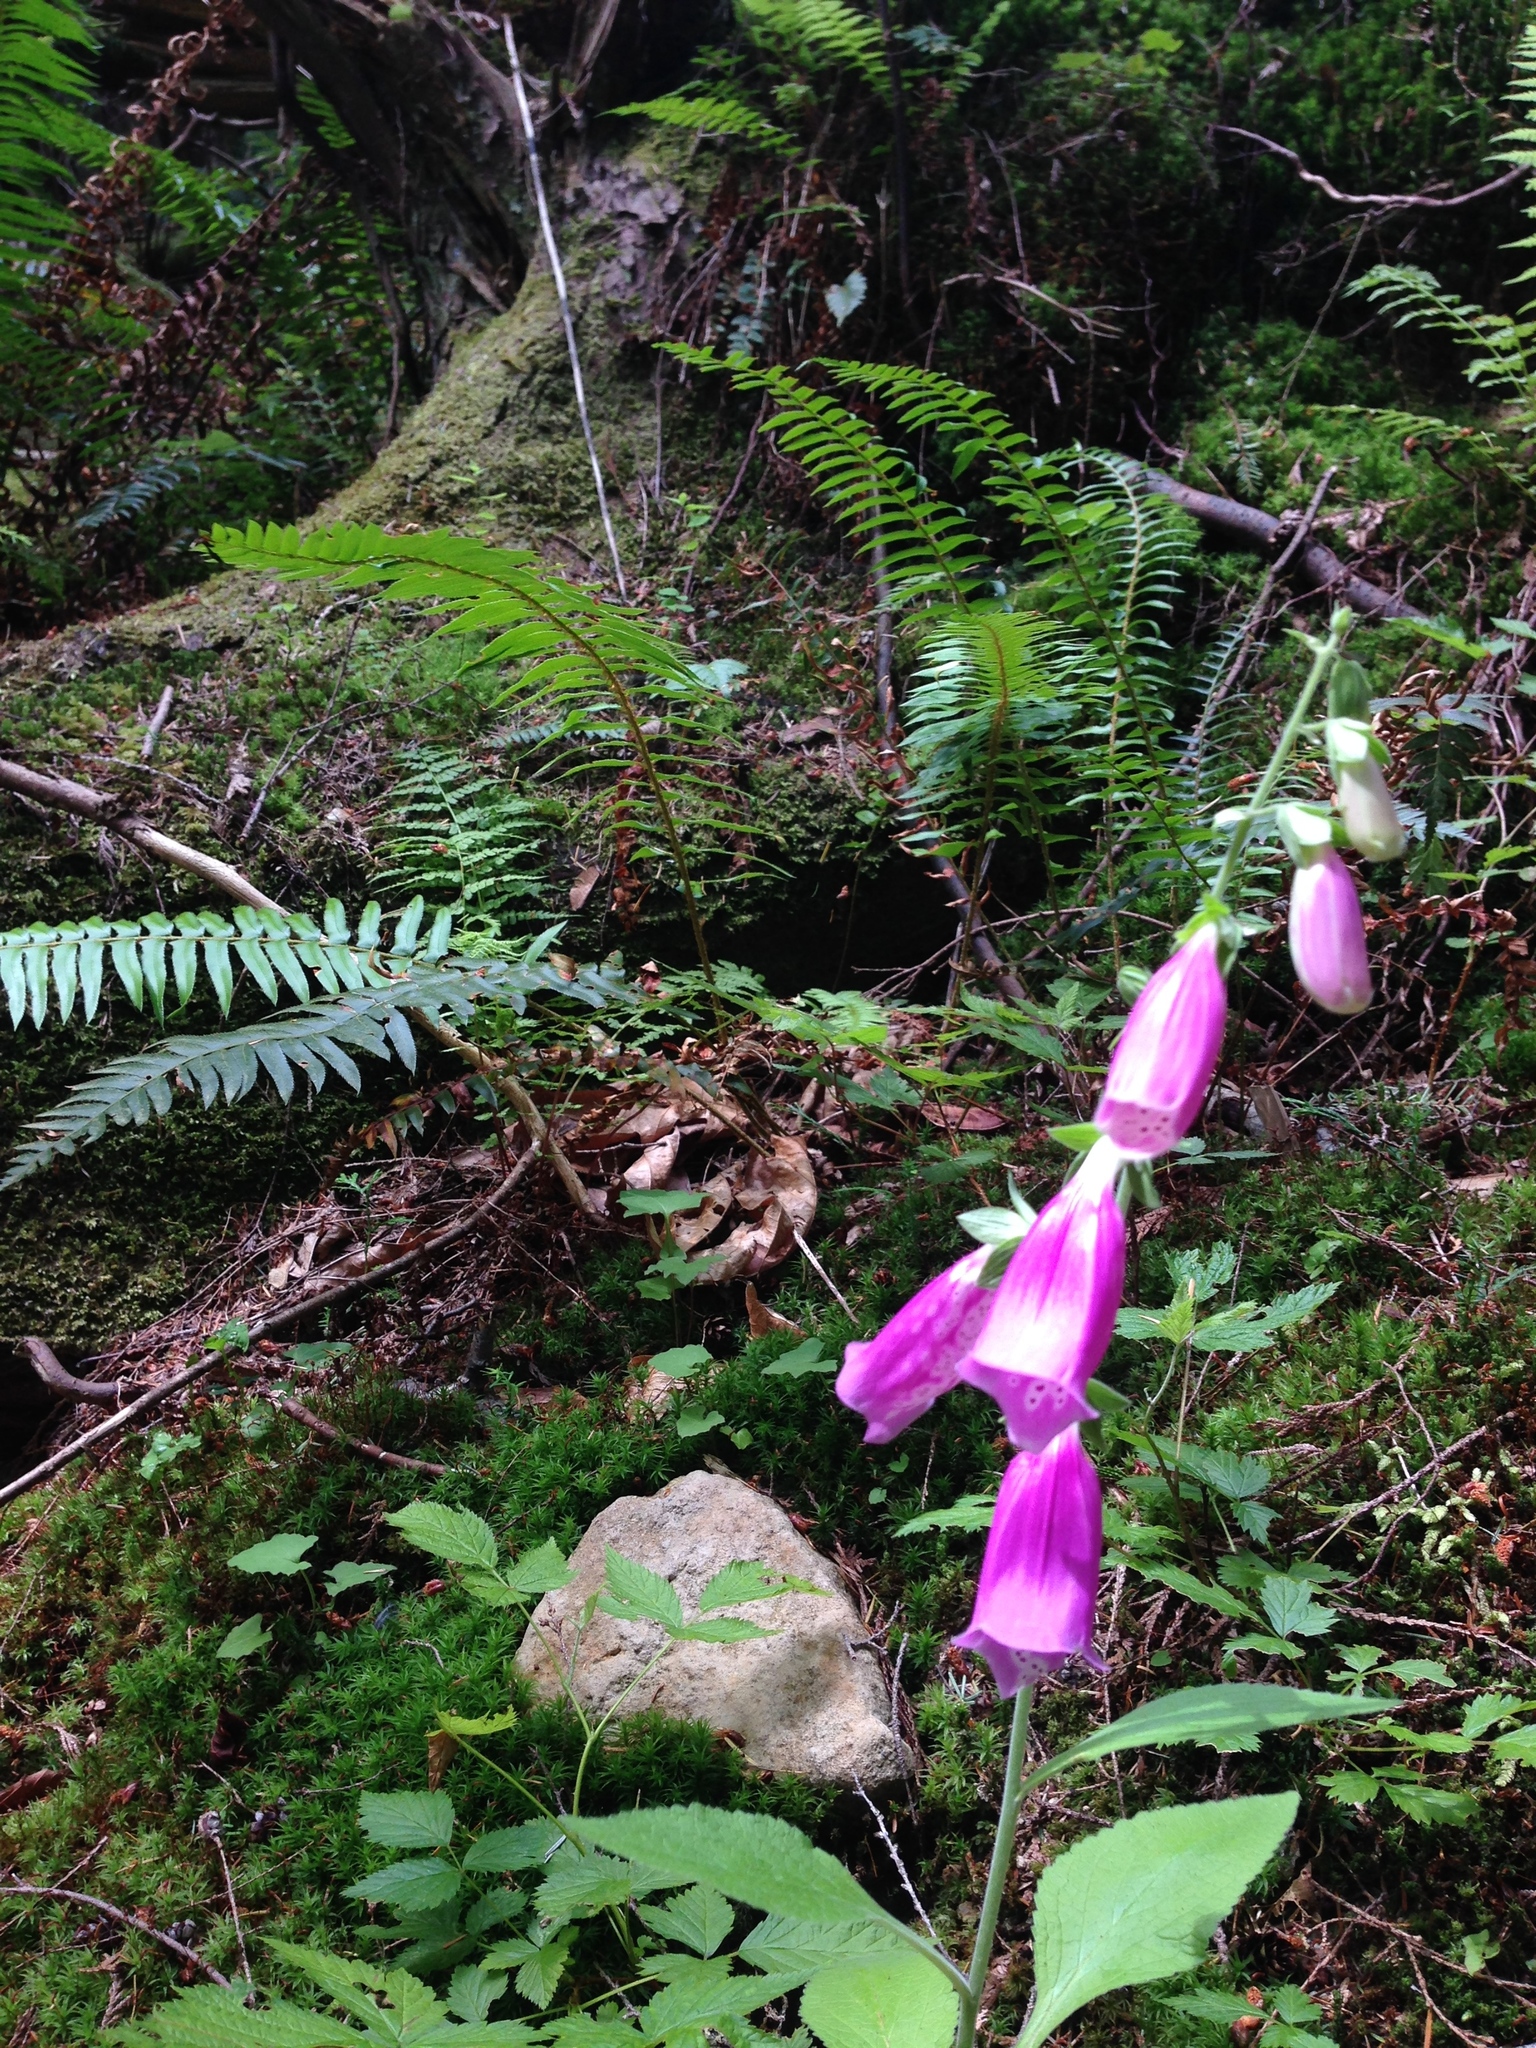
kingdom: Plantae
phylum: Tracheophyta
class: Magnoliopsida
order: Lamiales
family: Plantaginaceae
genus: Digitalis
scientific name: Digitalis purpurea
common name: Foxglove
